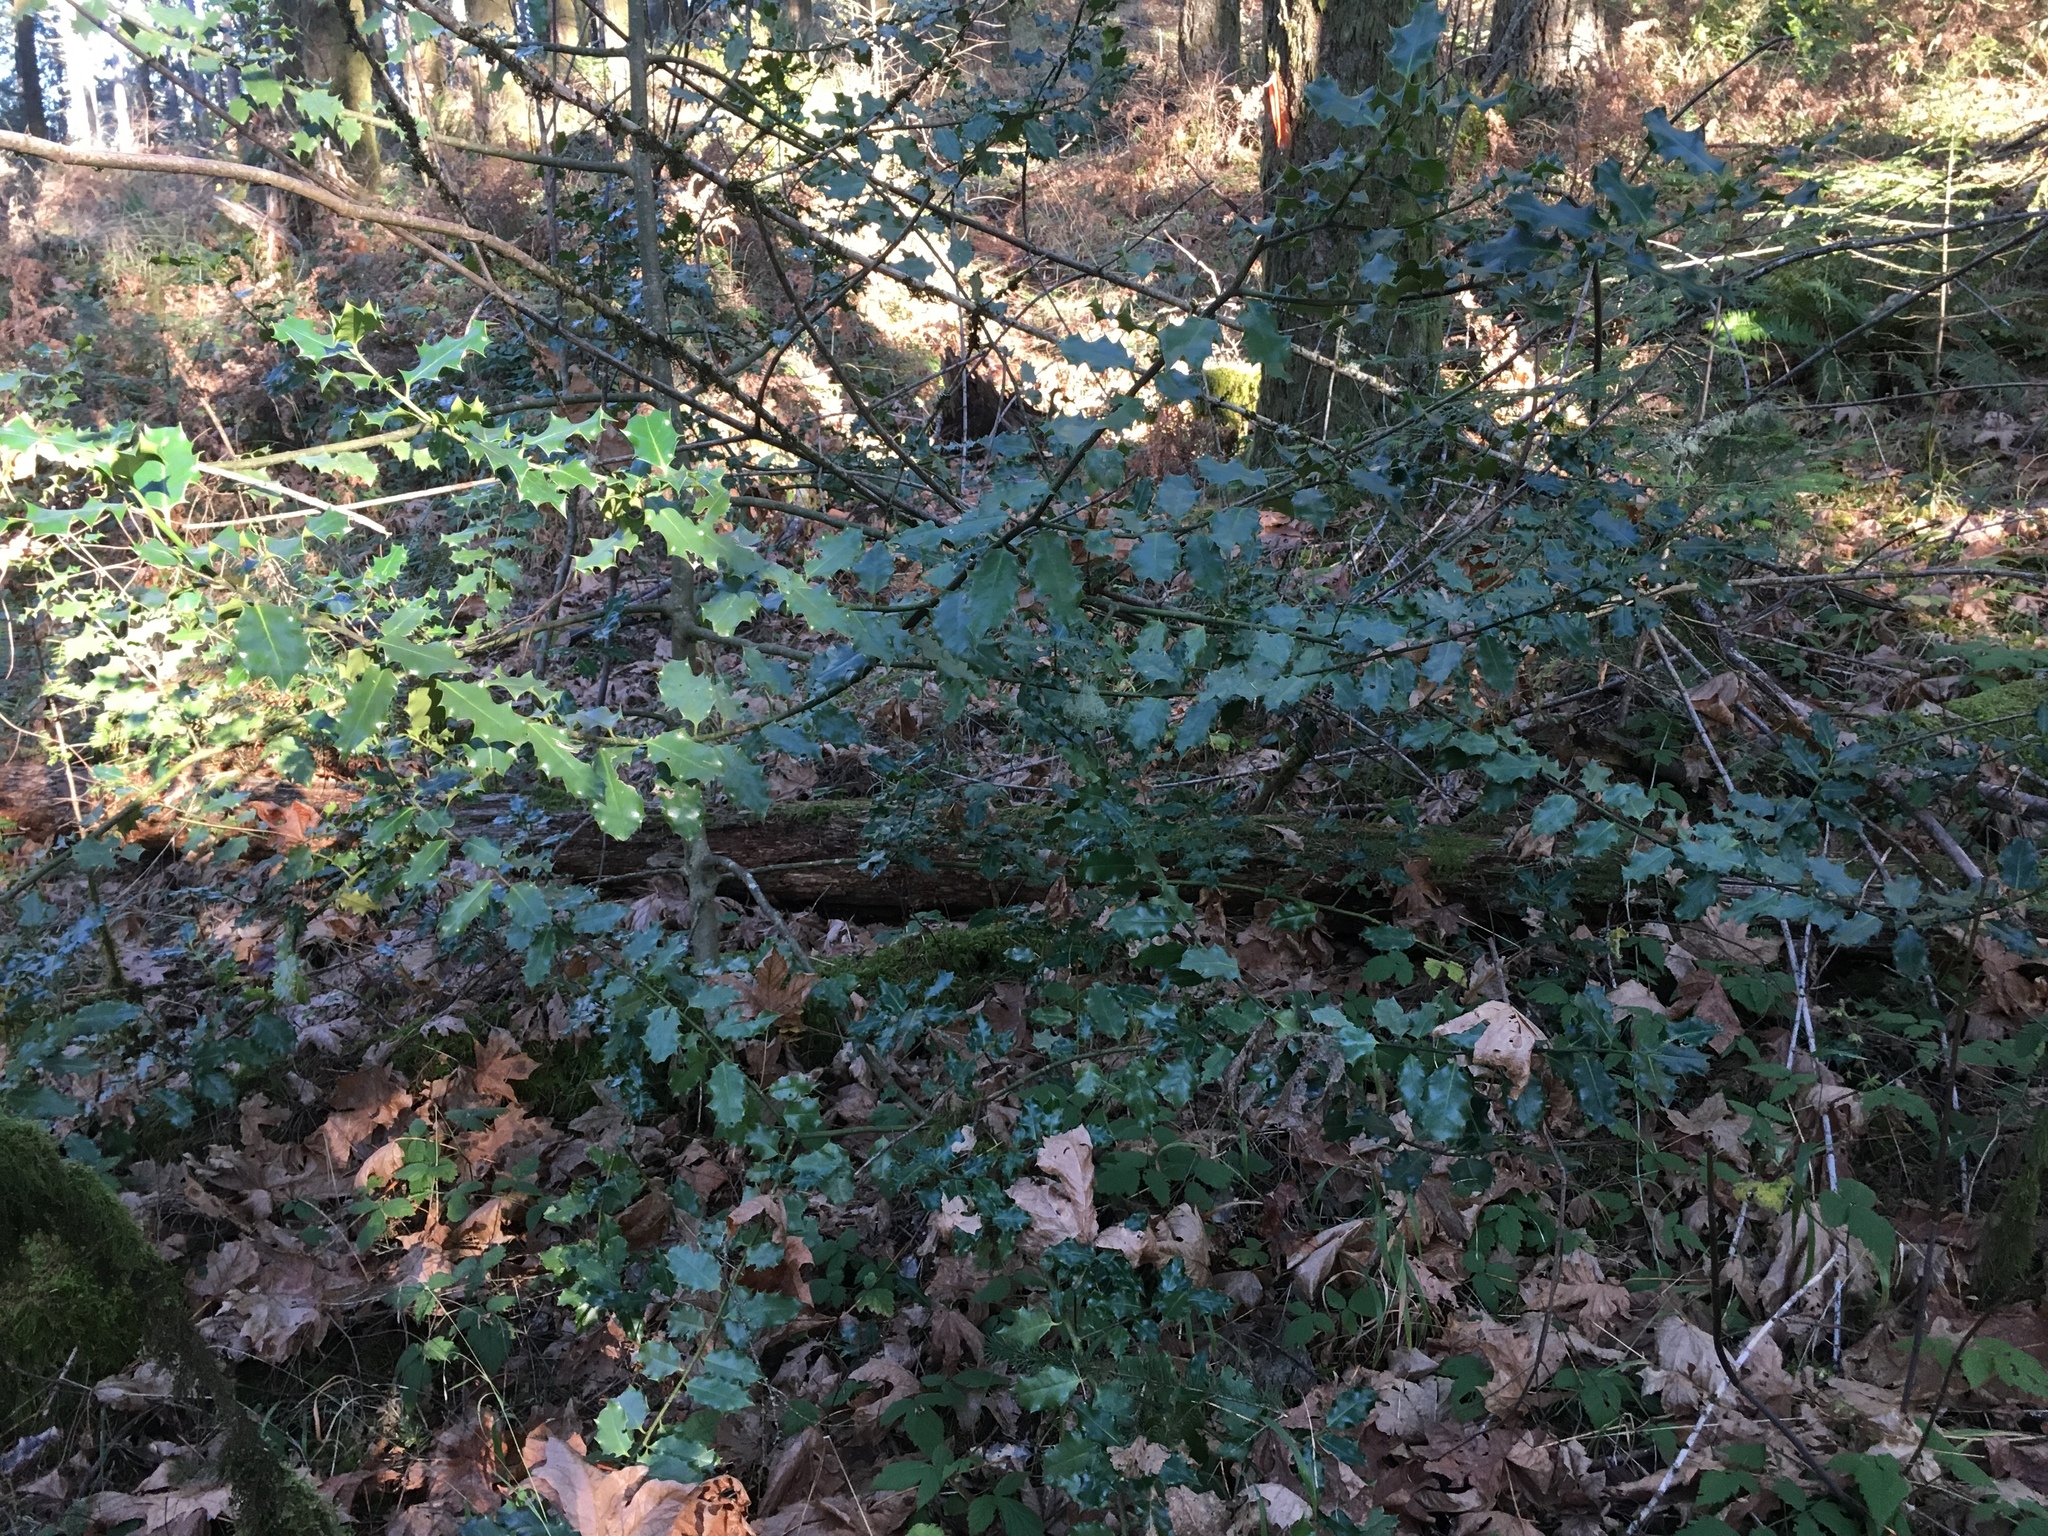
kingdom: Plantae
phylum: Tracheophyta
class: Magnoliopsida
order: Aquifoliales
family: Aquifoliaceae
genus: Ilex
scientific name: Ilex aquifolium
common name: English holly
